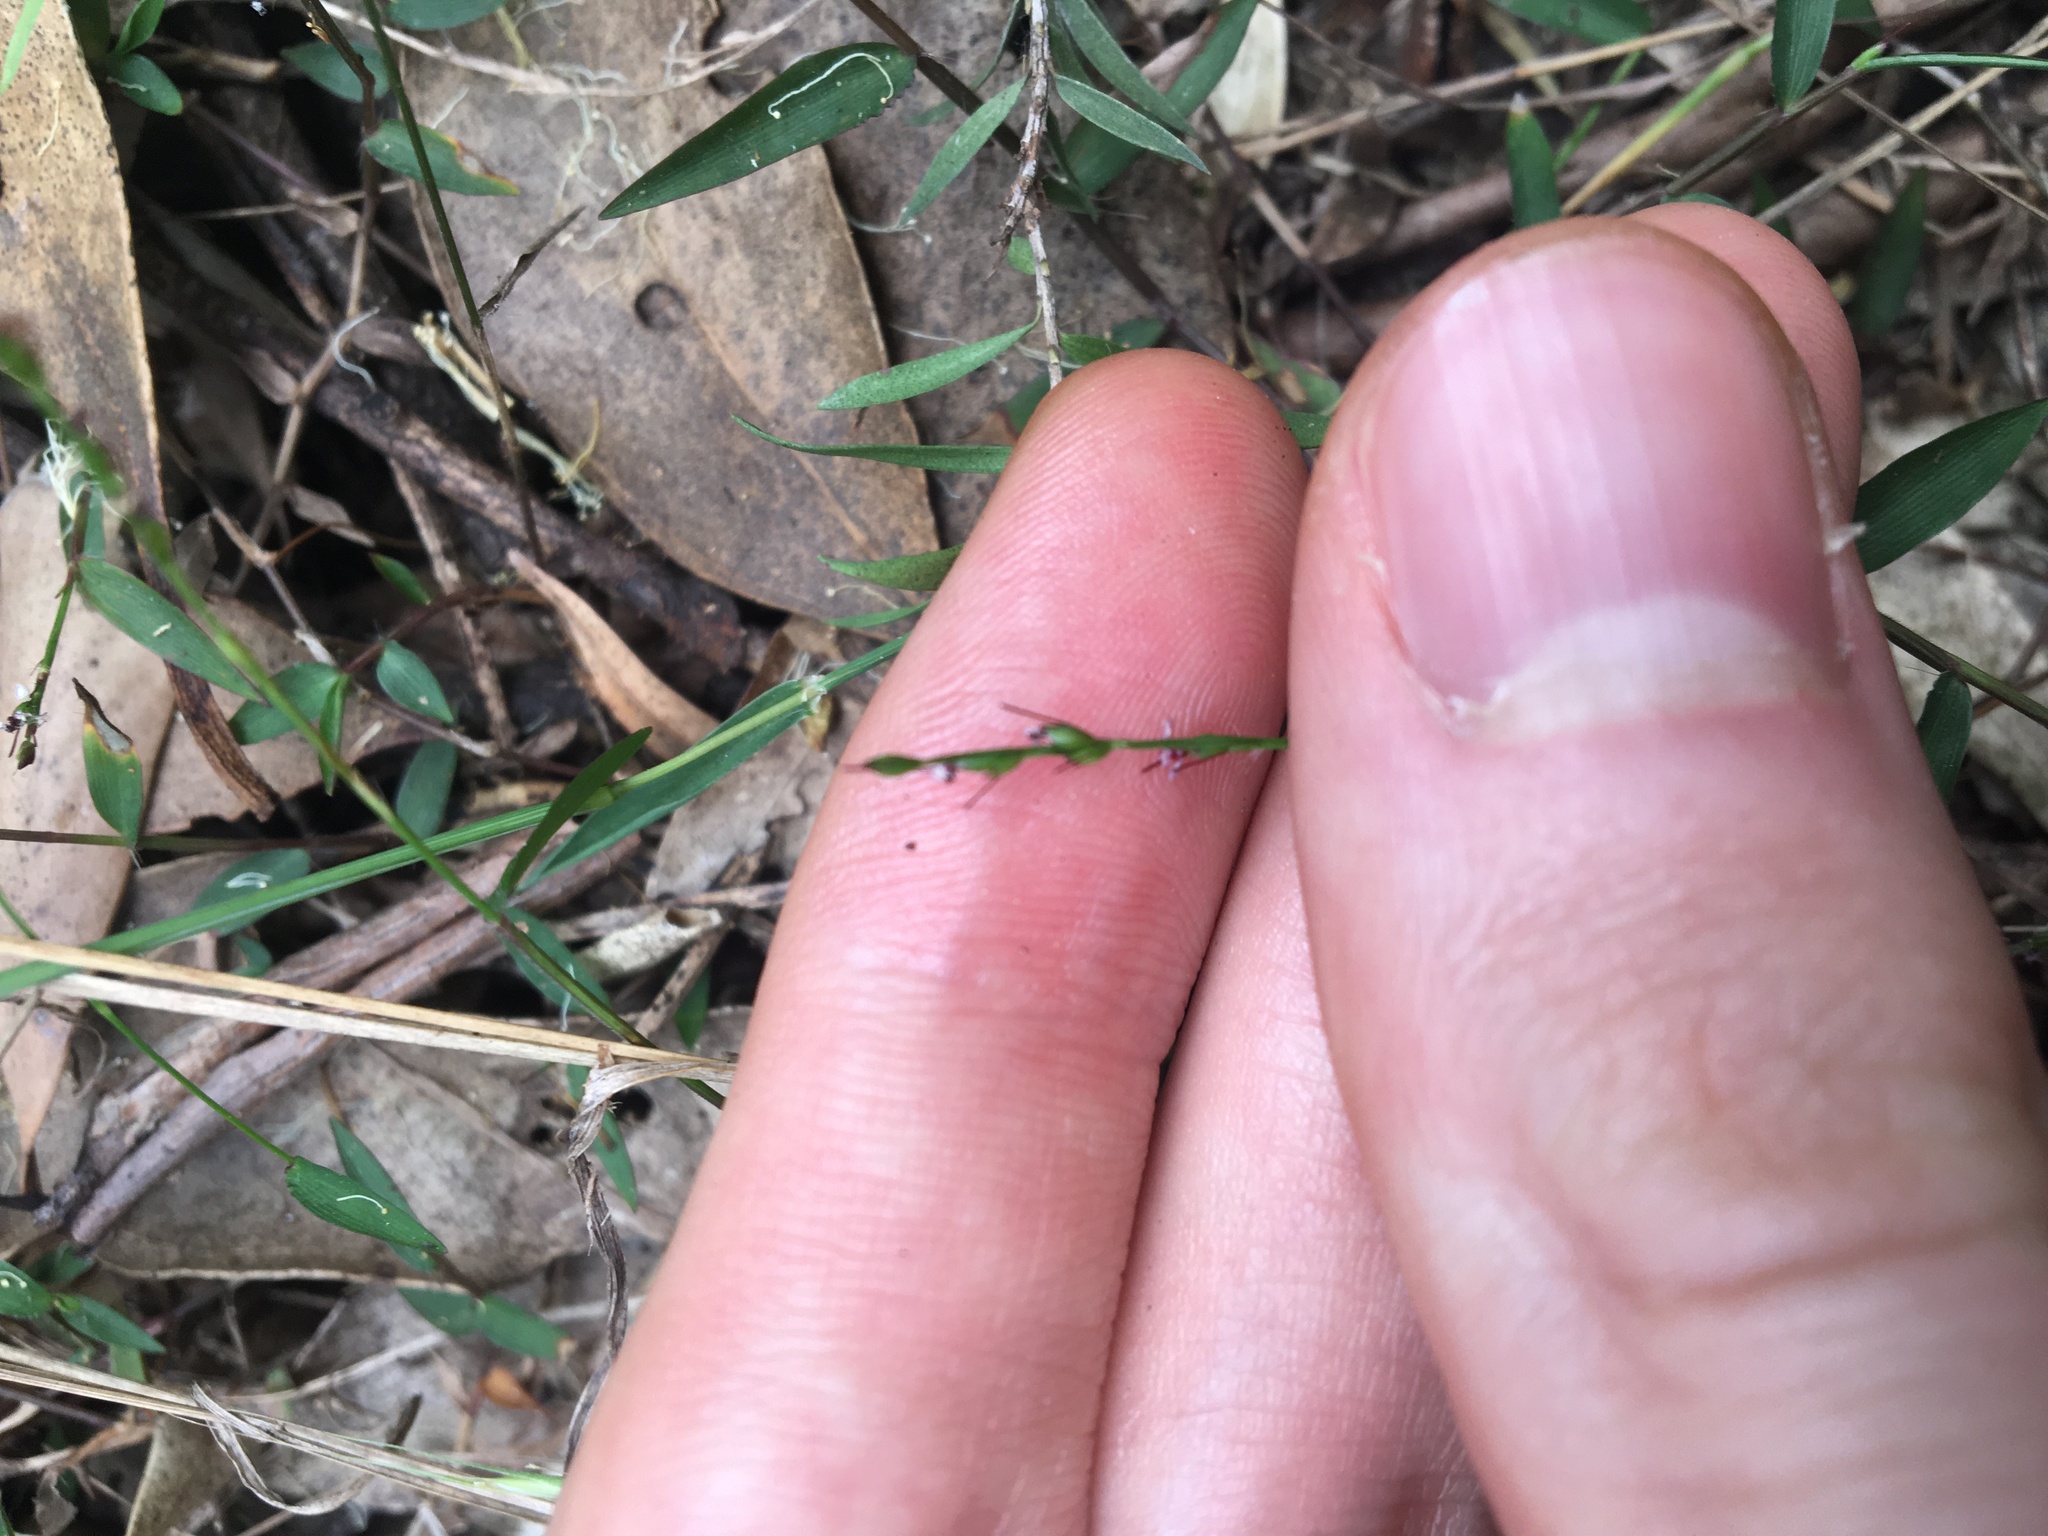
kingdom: Plantae
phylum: Tracheophyta
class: Liliopsida
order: Poales
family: Poaceae
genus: Oplismenus
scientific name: Oplismenus hirtellus
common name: Basketgrass
